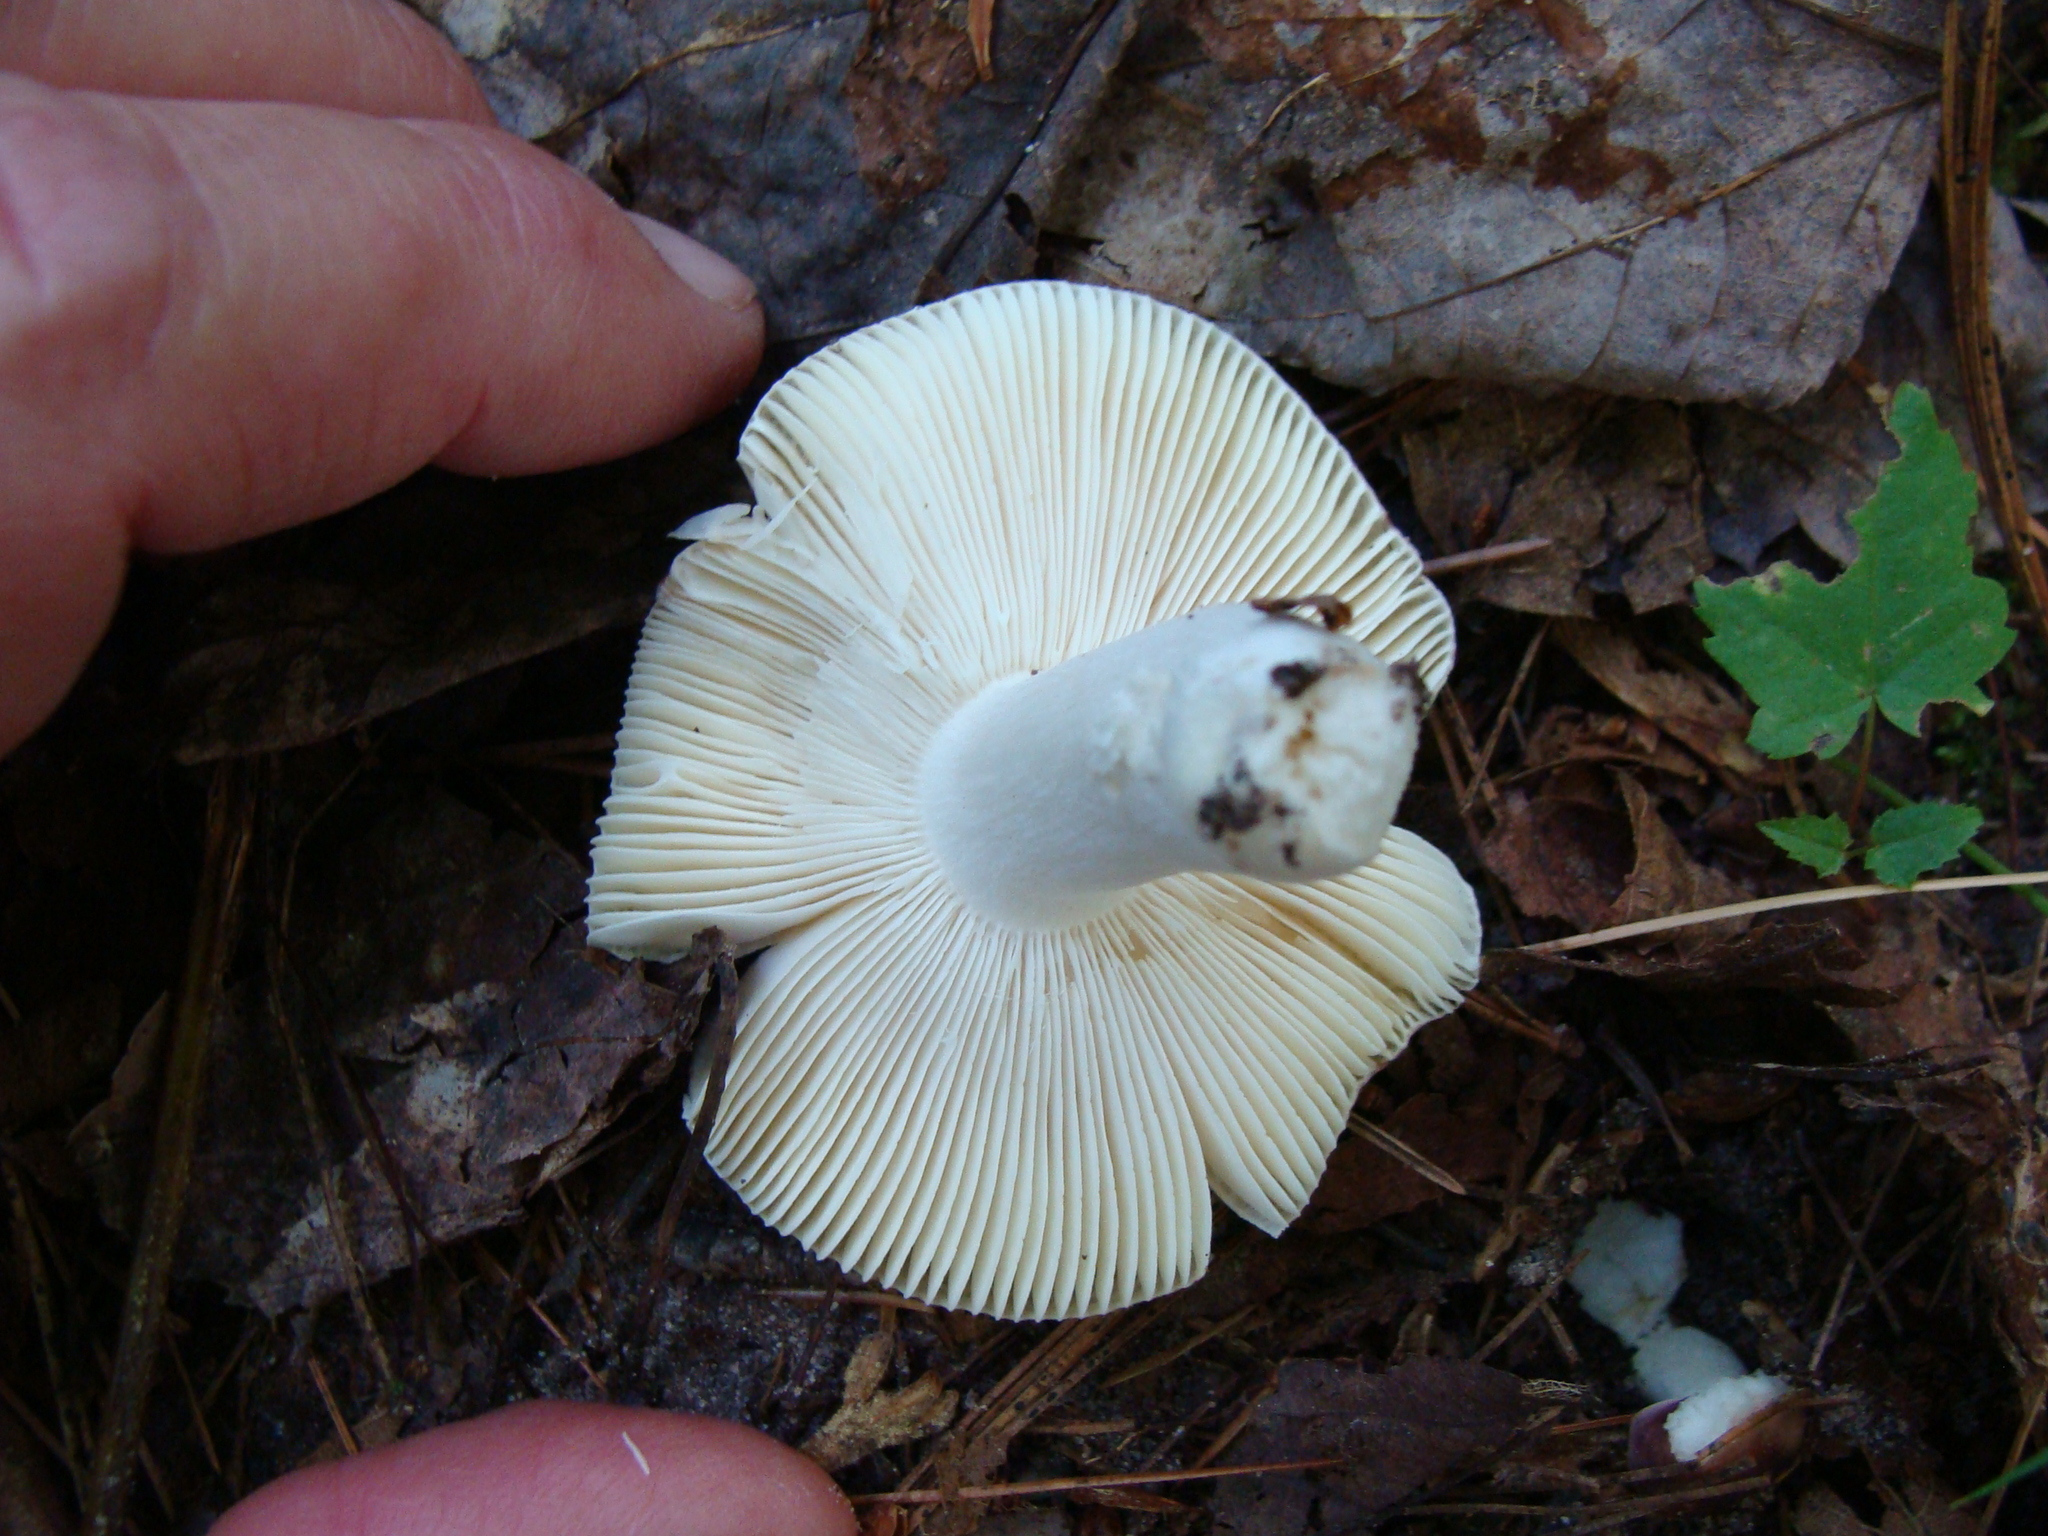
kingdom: Fungi
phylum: Basidiomycota
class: Agaricomycetes
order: Russulales
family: Russulaceae
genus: Russula
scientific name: Russula
